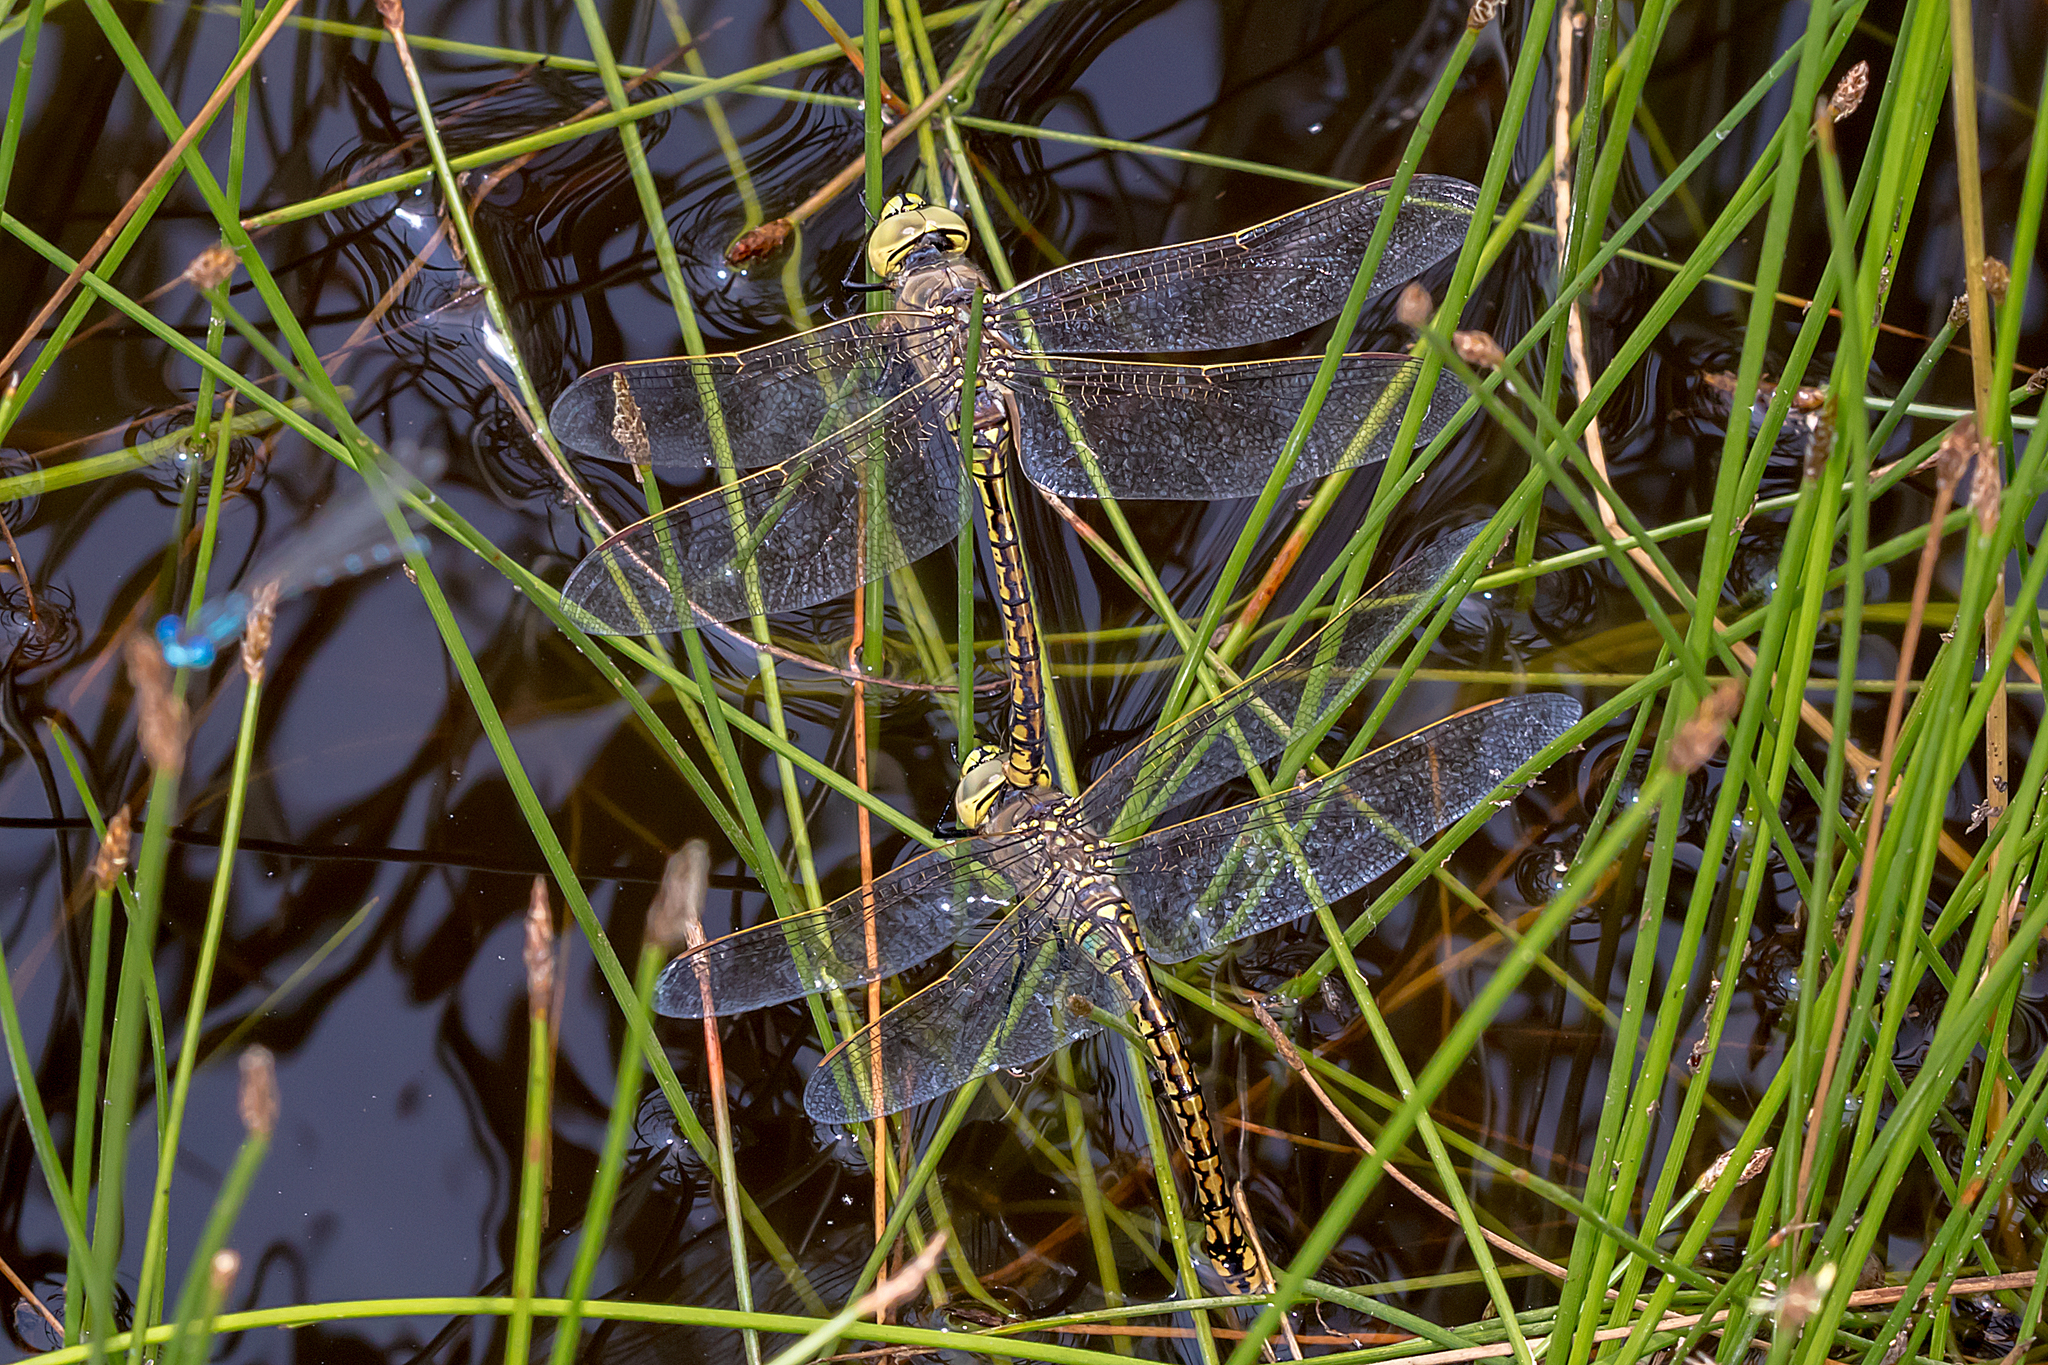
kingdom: Animalia
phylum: Arthropoda
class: Insecta
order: Odonata
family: Aeshnidae
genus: Anax
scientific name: Anax papuensis
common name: Australian emperor
